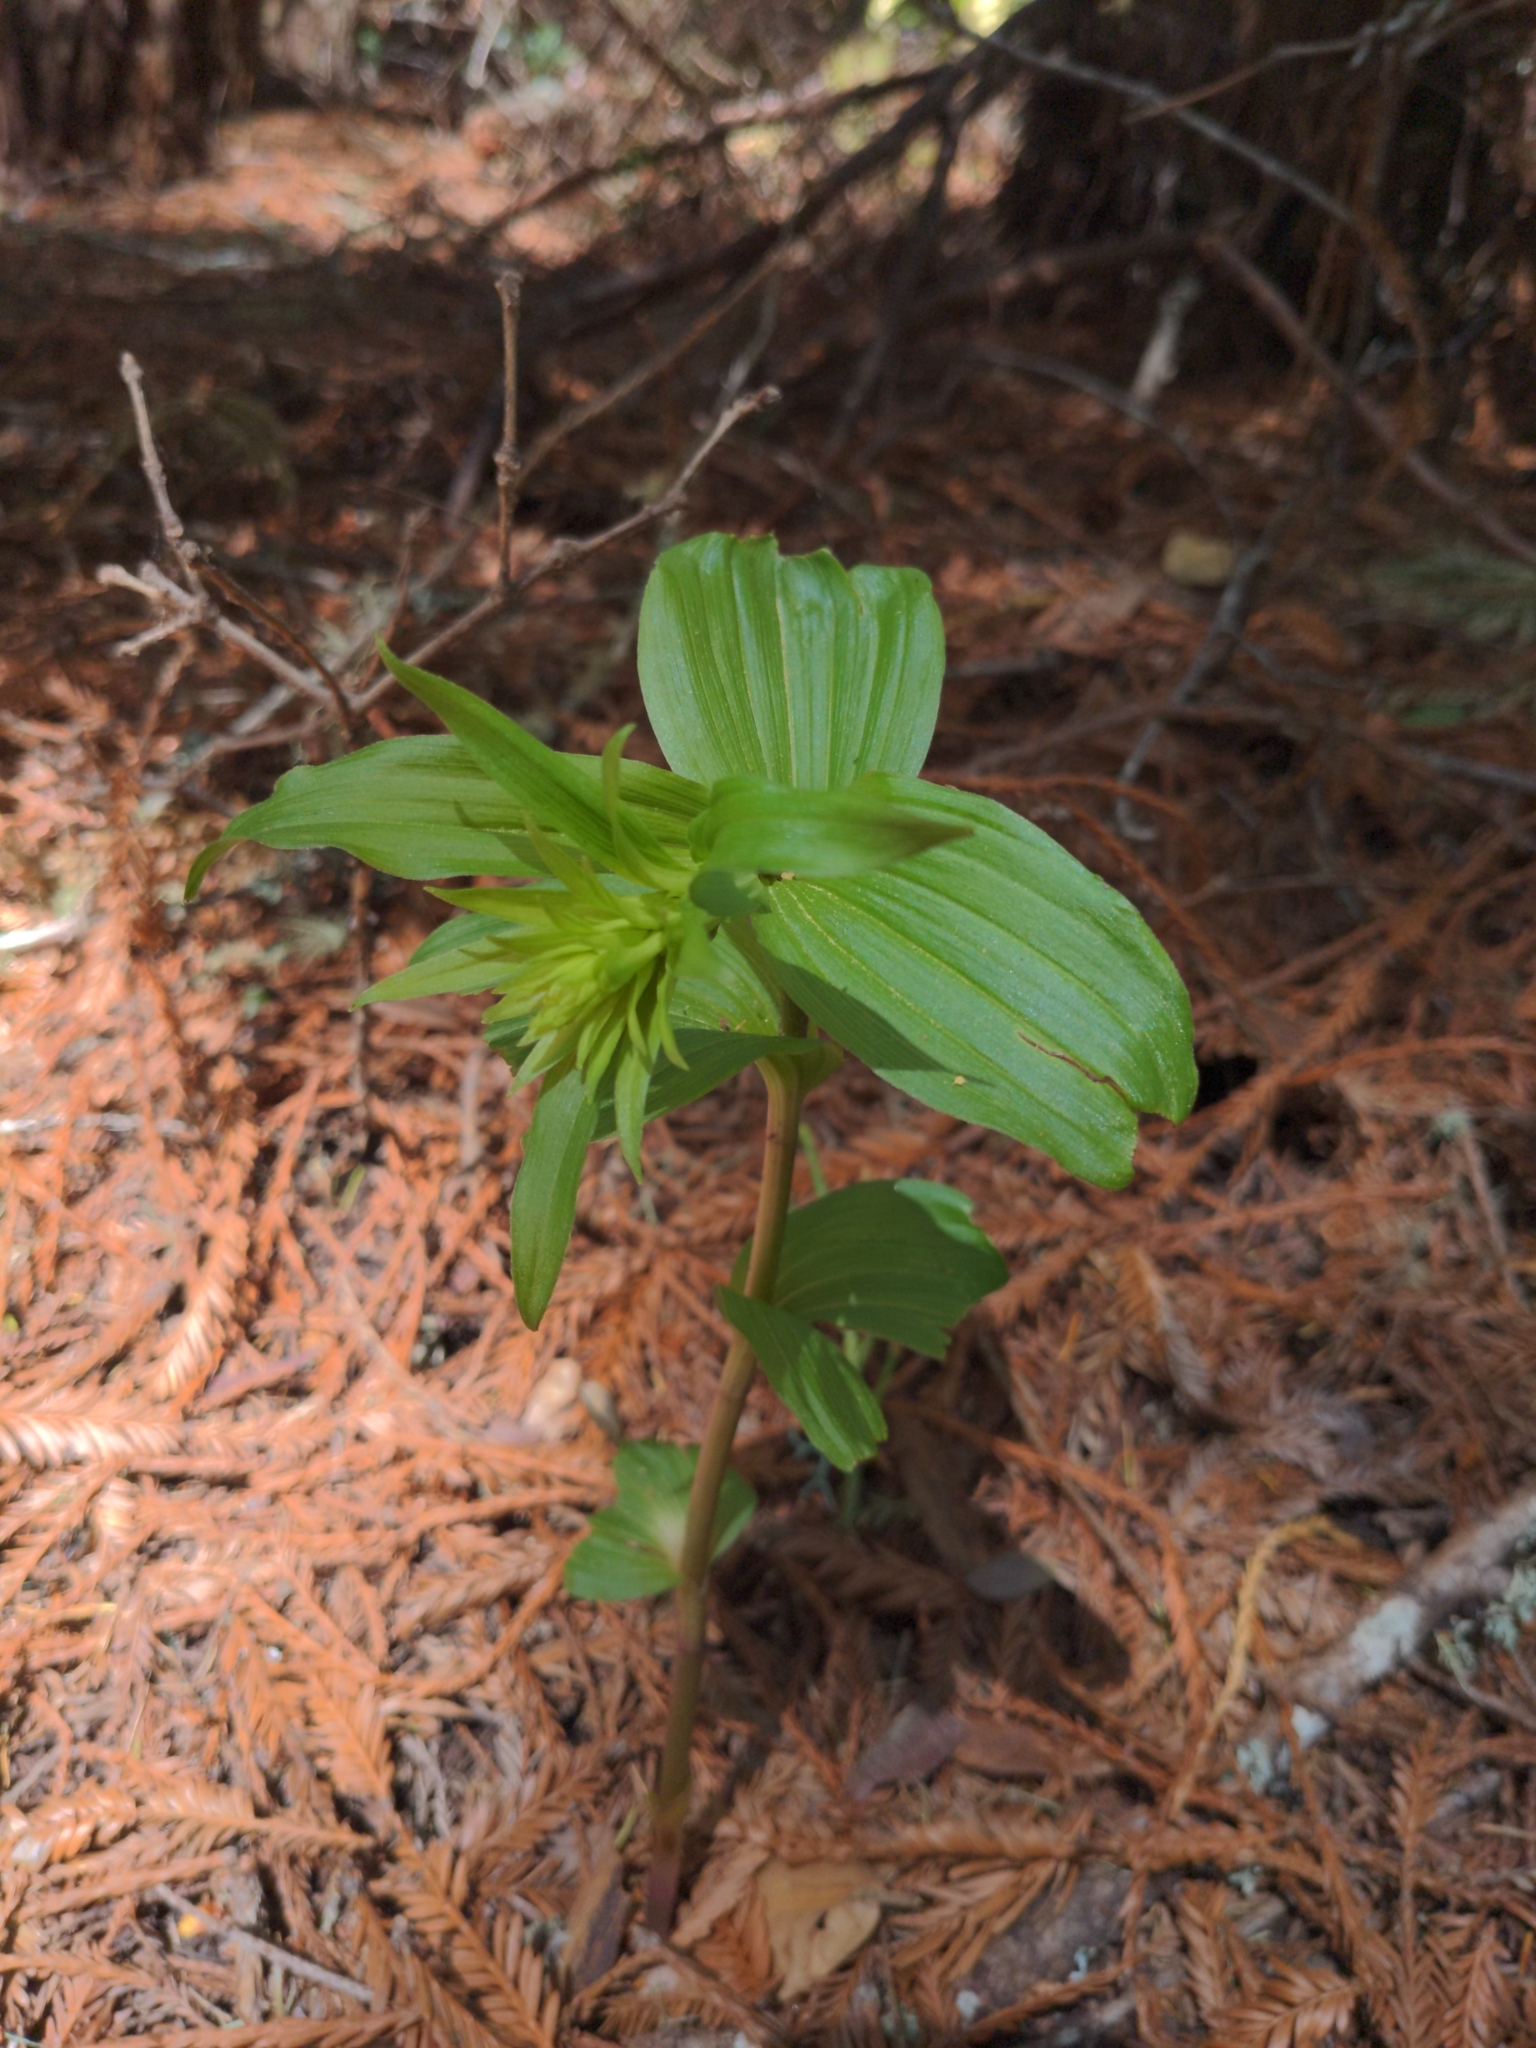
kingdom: Plantae
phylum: Tracheophyta
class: Liliopsida
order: Asparagales
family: Orchidaceae
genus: Epipactis
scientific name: Epipactis helleborine
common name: Broad-leaved helleborine
